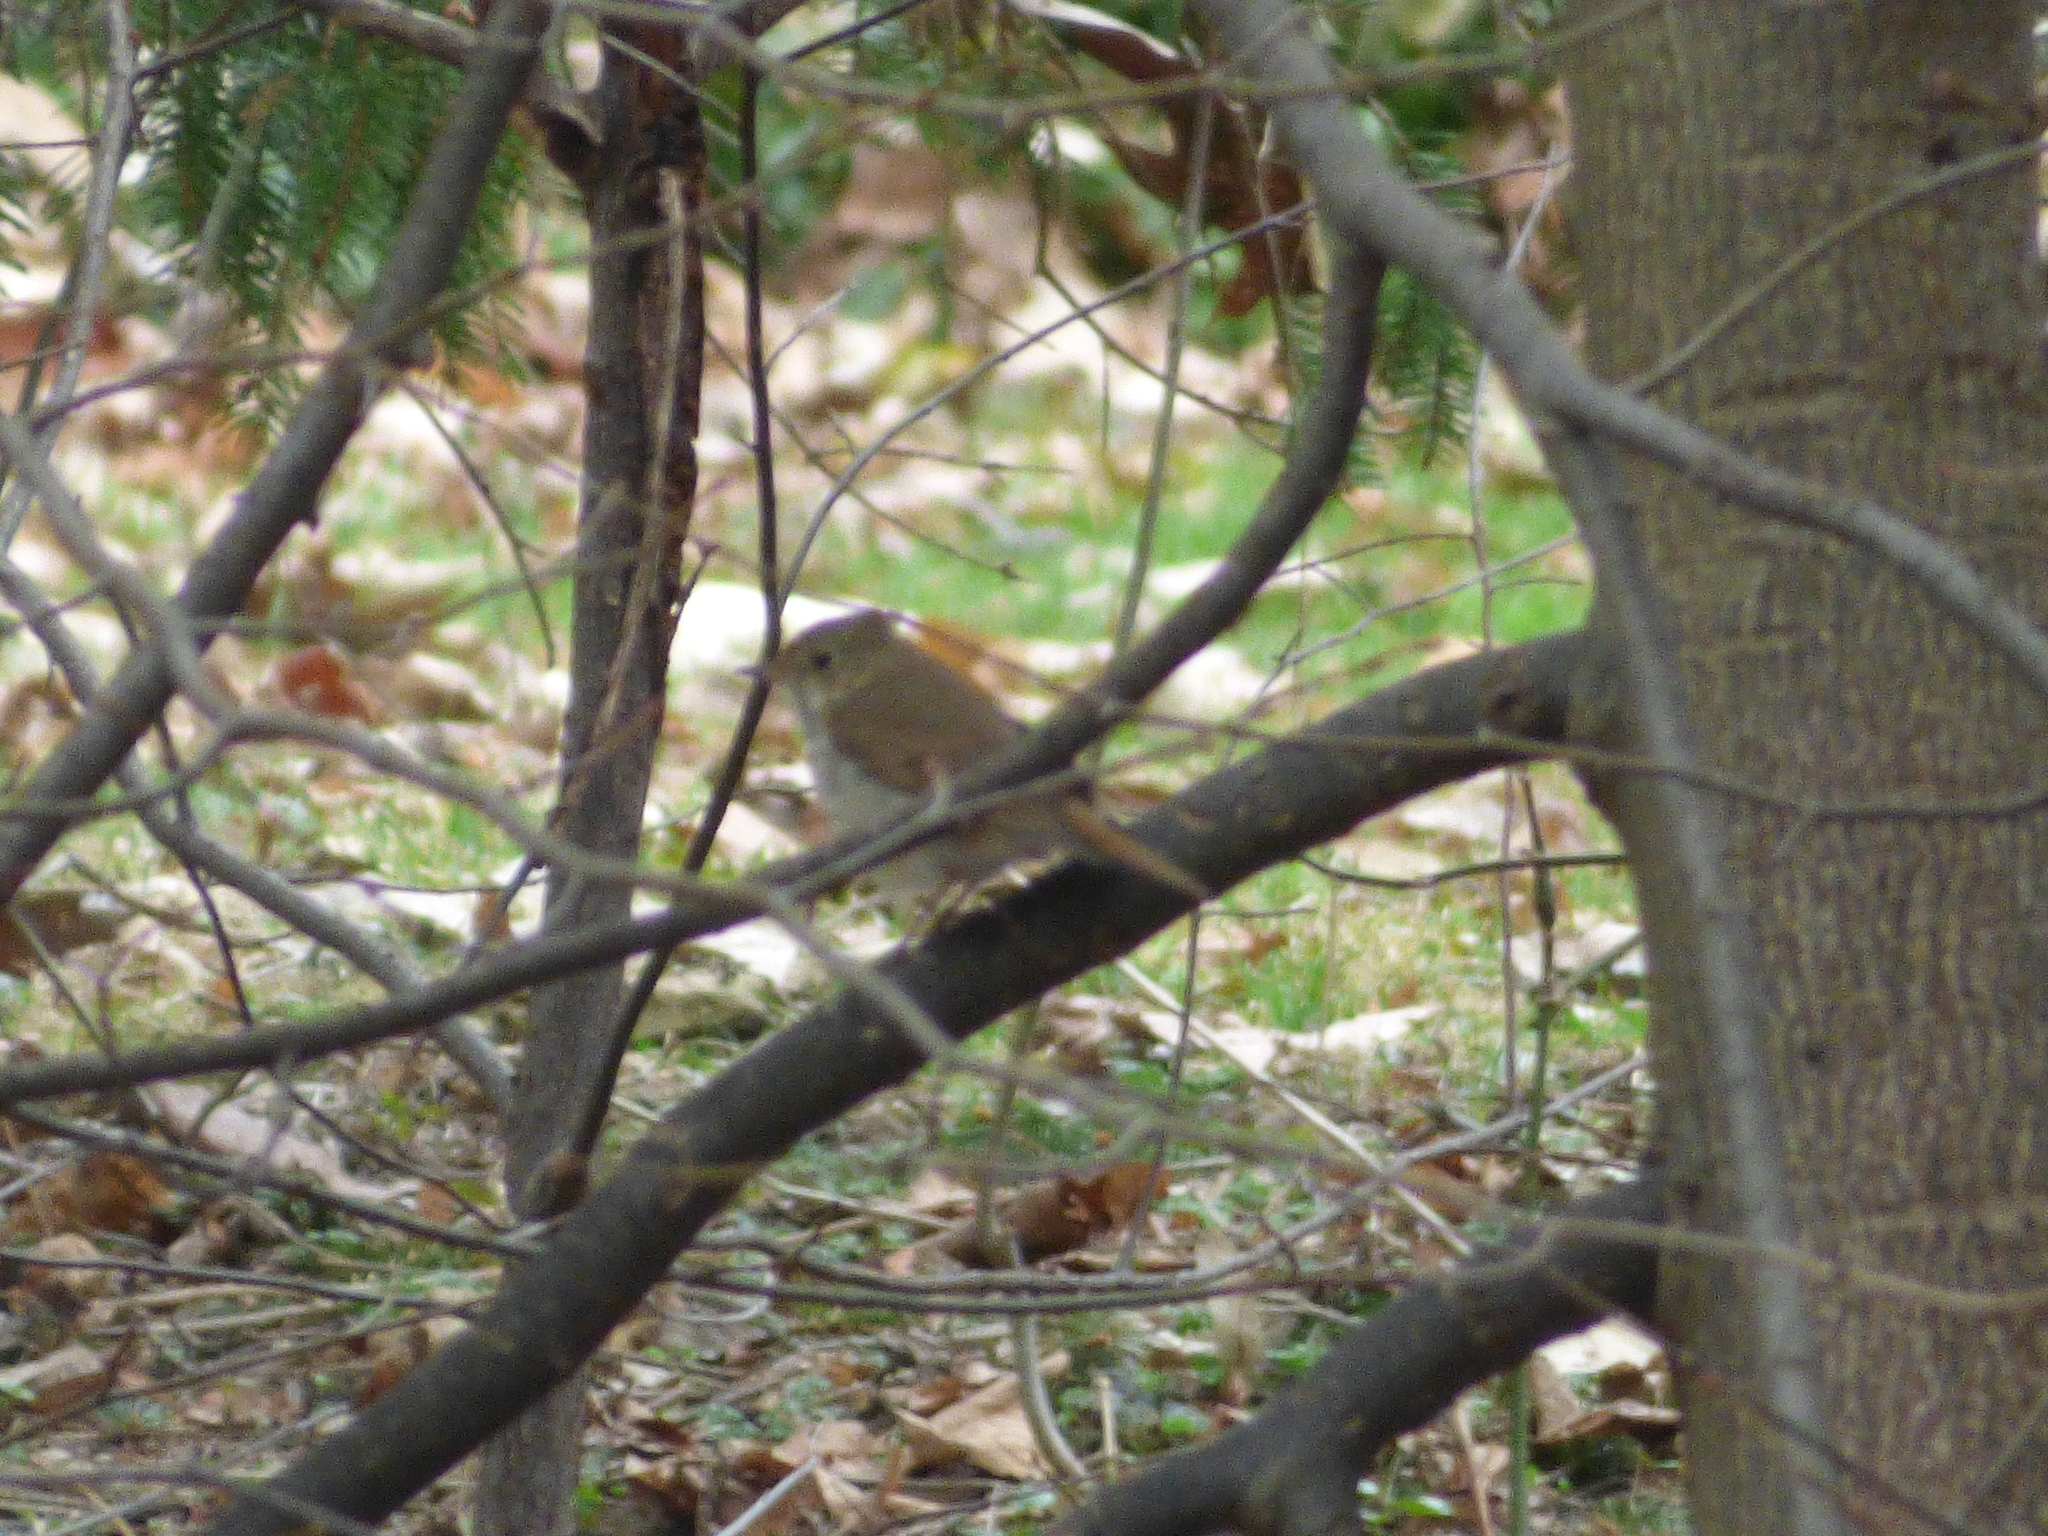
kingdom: Animalia
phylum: Chordata
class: Aves
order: Passeriformes
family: Turdidae
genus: Catharus
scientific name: Catharus guttatus
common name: Hermit thrush
